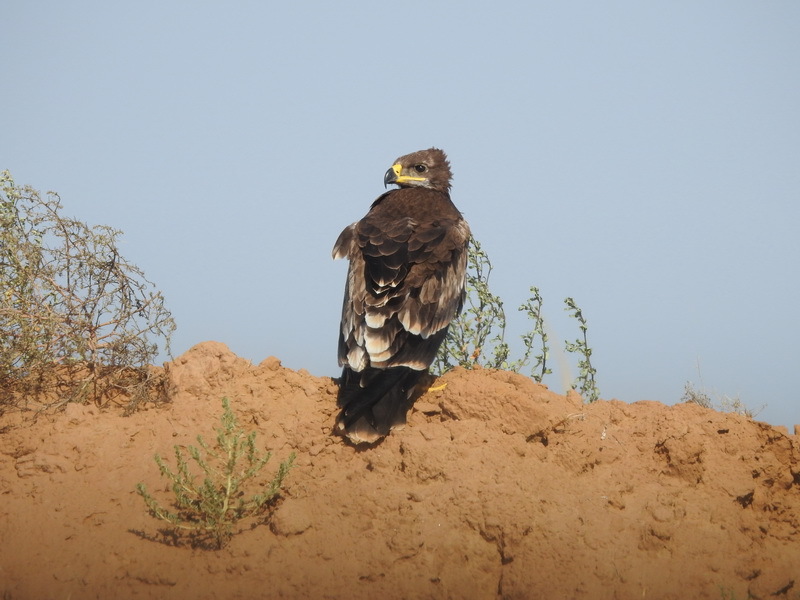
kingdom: Animalia
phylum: Chordata
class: Aves
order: Accipitriformes
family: Accipitridae
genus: Aquila
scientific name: Aquila nipalensis
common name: Steppe eagle
